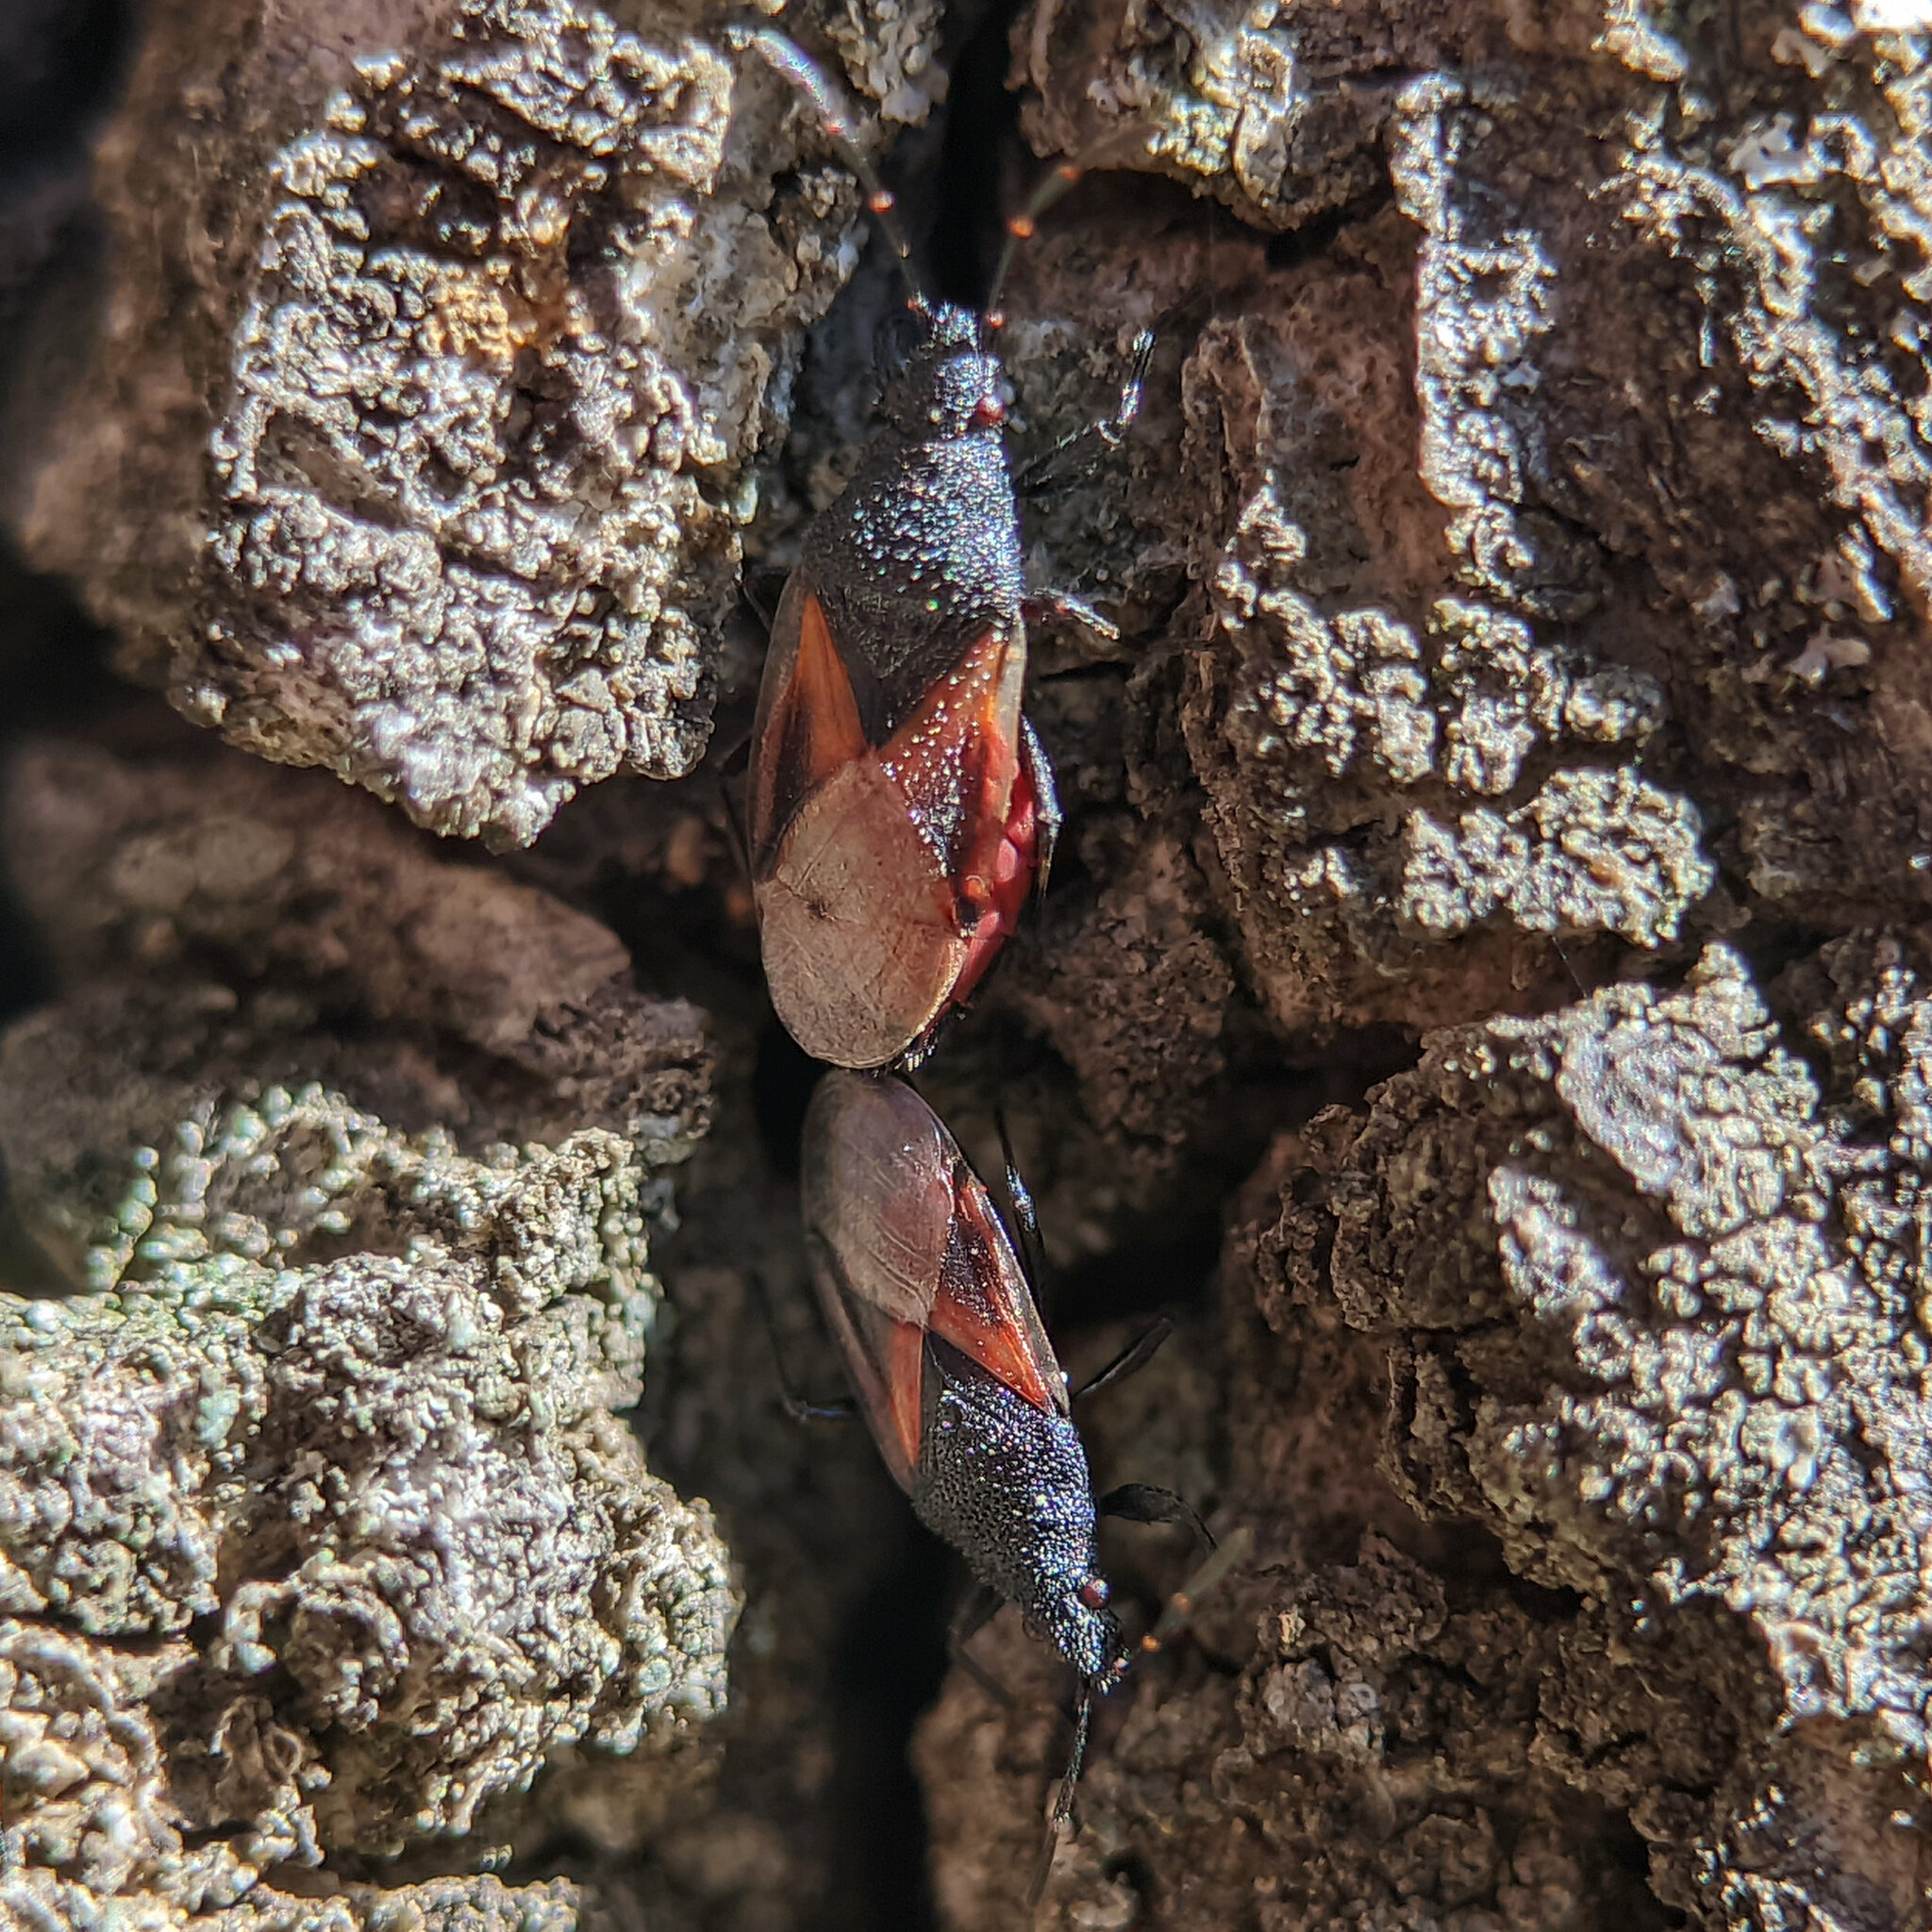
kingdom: Animalia
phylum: Arthropoda
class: Insecta
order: Hemiptera
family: Oxycarenidae
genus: Oxycarenus
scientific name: Oxycarenus lavaterae
